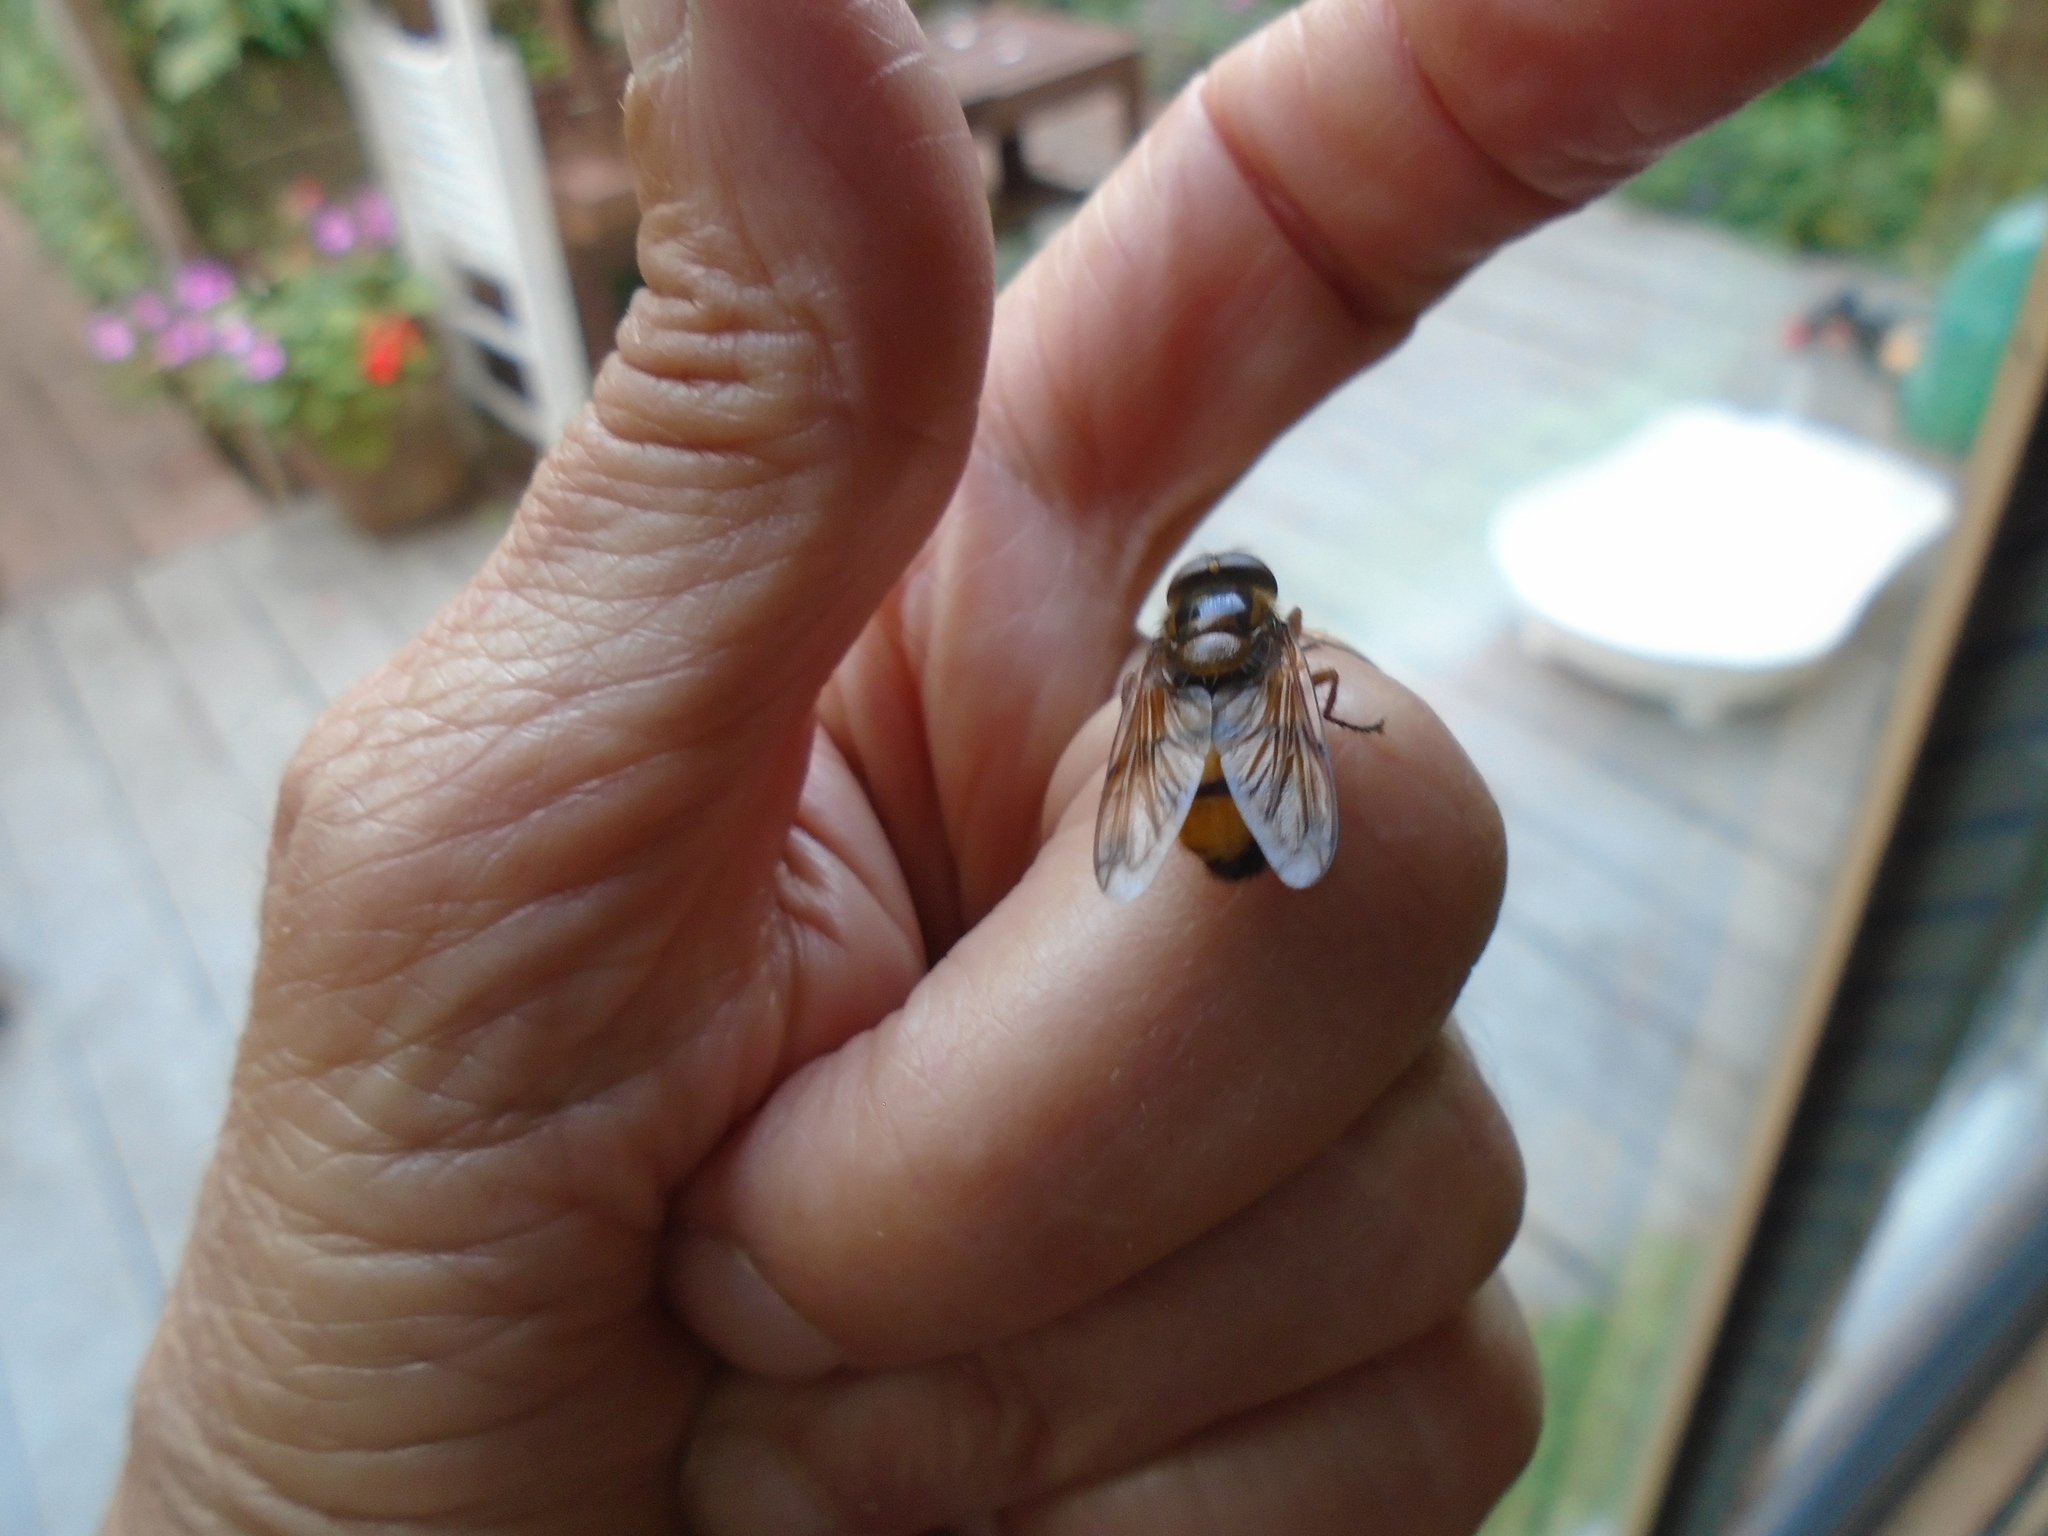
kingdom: Animalia
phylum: Arthropoda
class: Insecta
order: Diptera
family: Syrphidae
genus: Volucella
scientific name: Volucella inanis
